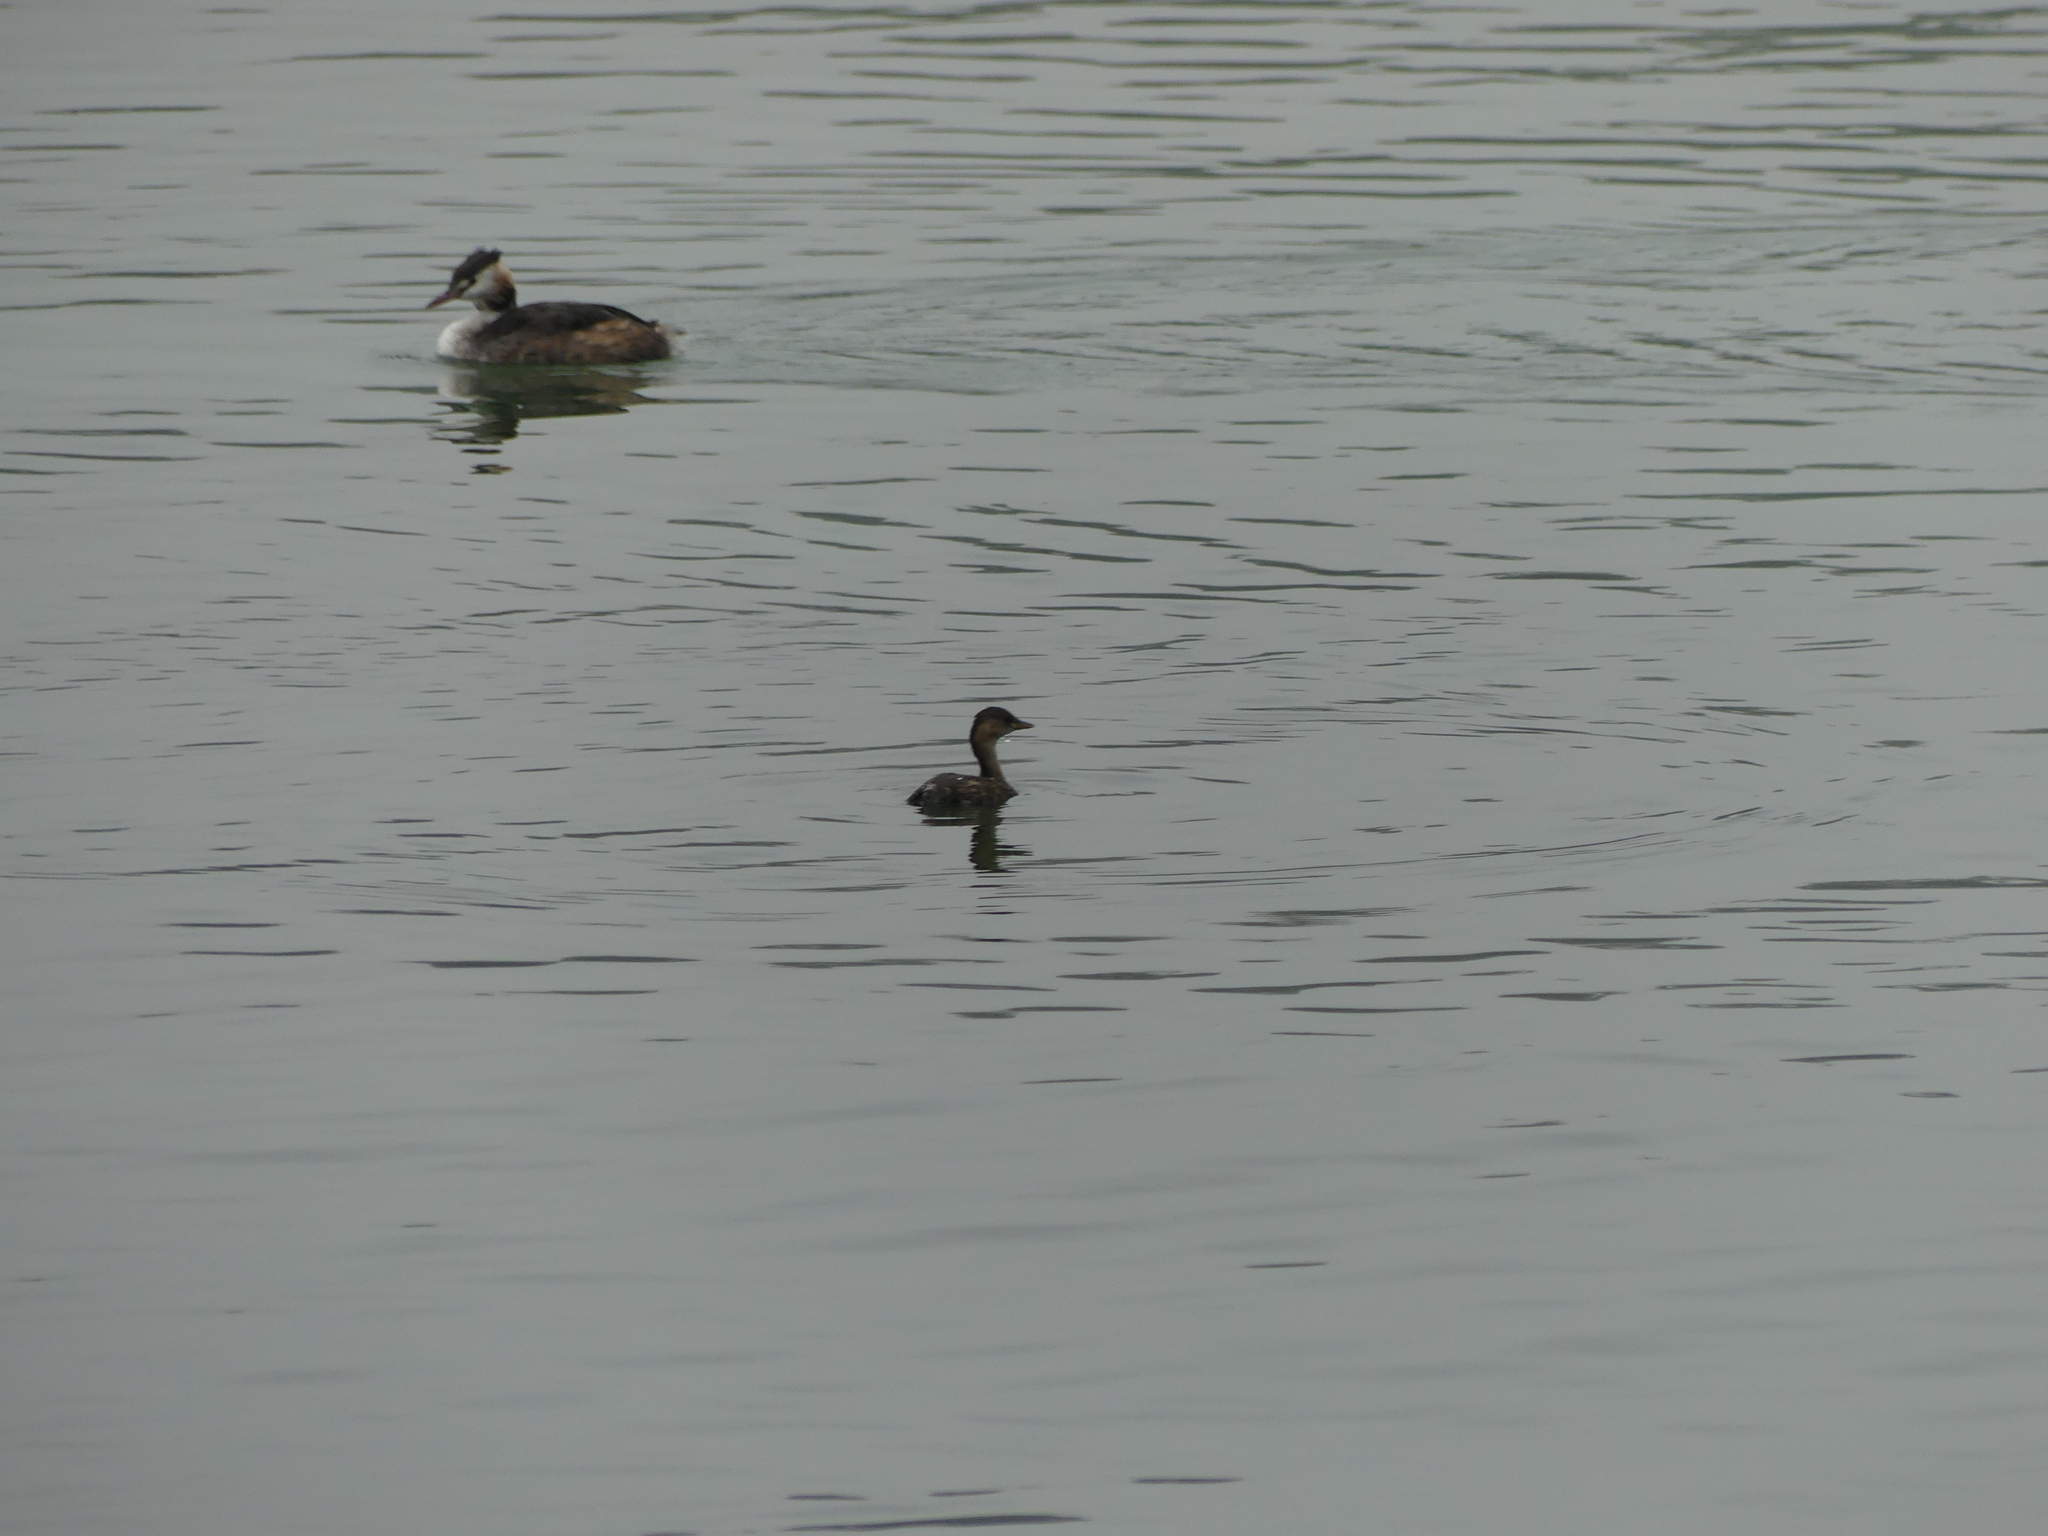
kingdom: Animalia
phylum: Chordata
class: Aves
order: Podicipediformes
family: Podicipedidae
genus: Podiceps
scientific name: Podiceps cristatus
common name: Great crested grebe
